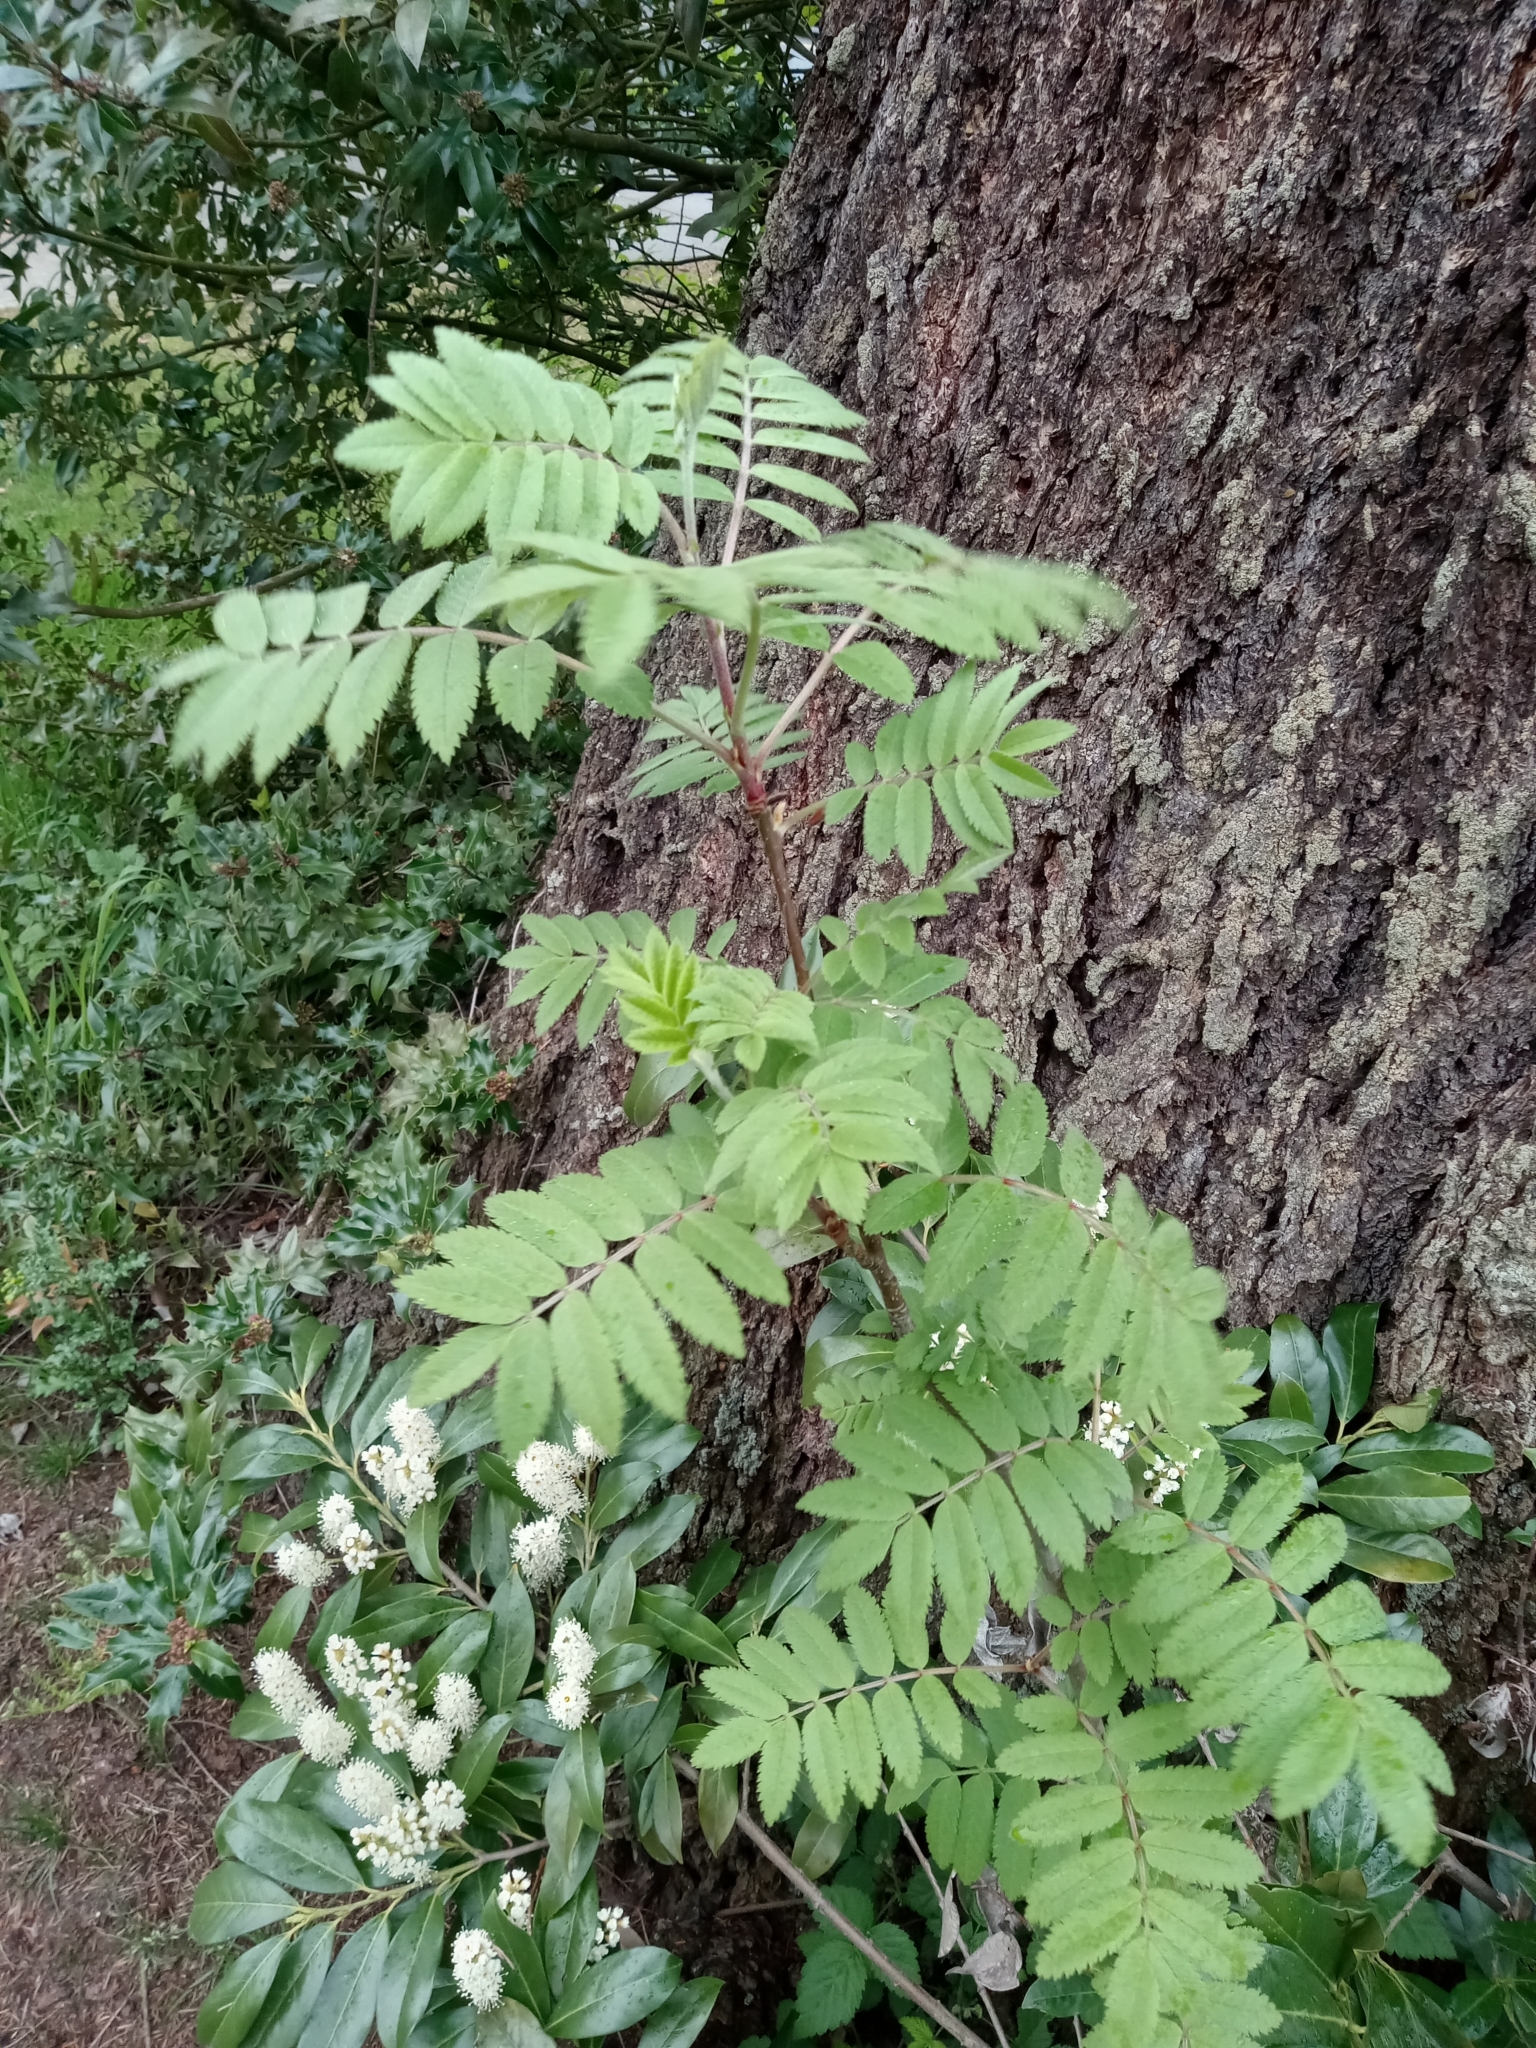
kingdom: Plantae
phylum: Tracheophyta
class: Magnoliopsida
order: Rosales
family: Rosaceae
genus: Sorbus
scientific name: Sorbus aucuparia
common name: Rowan
